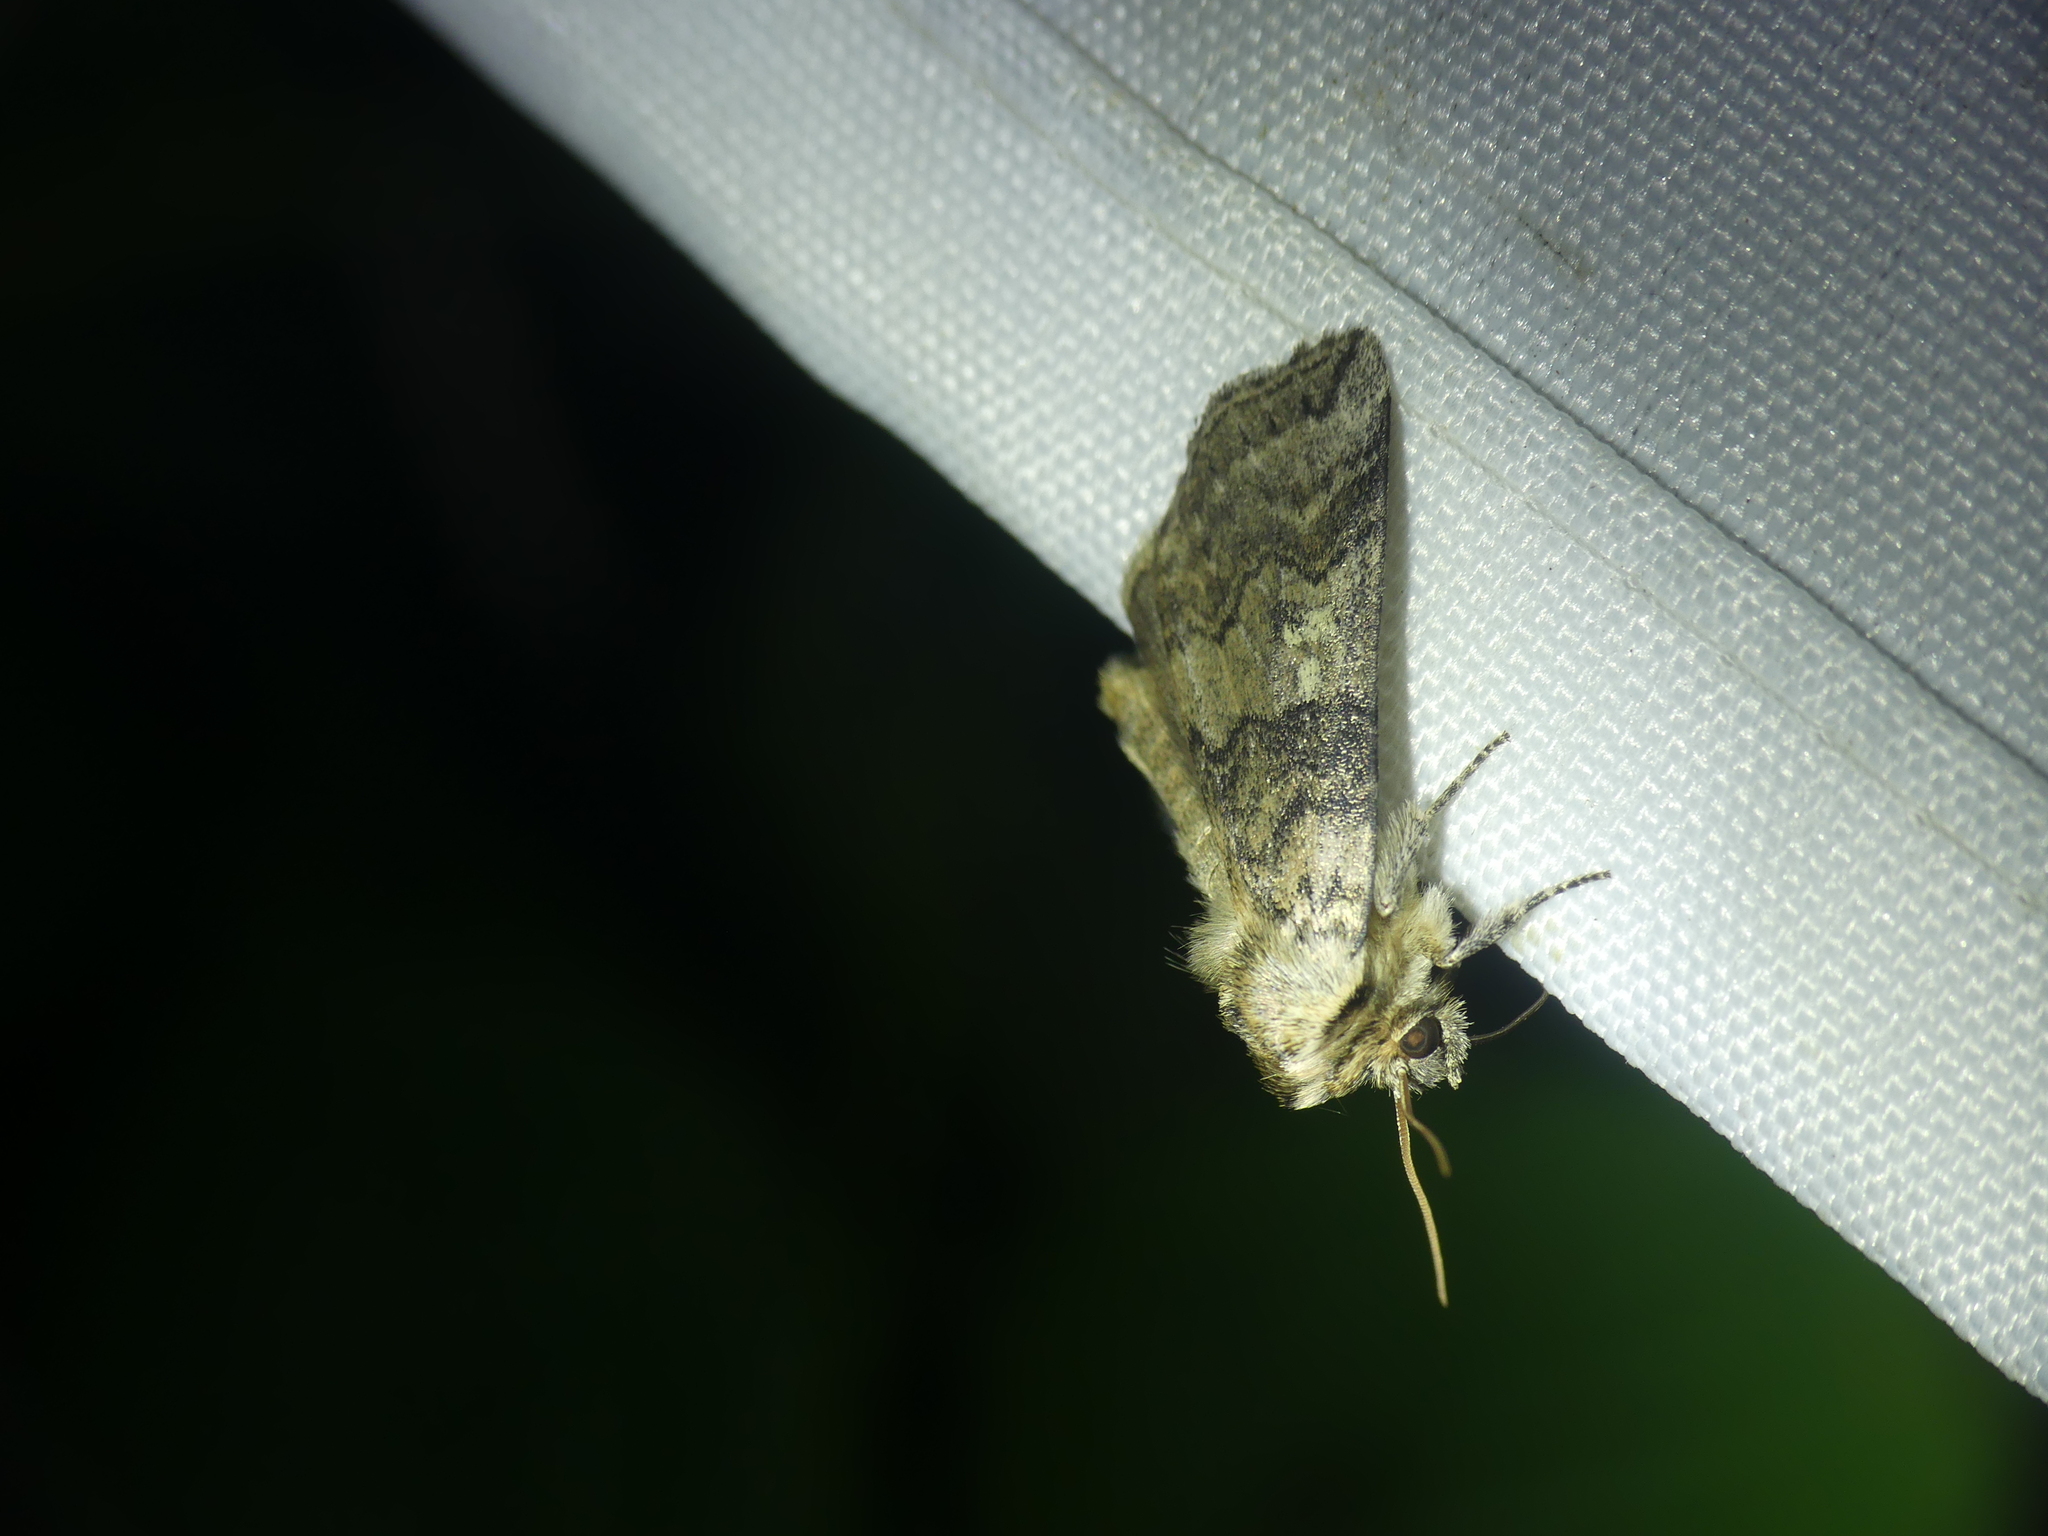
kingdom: Animalia
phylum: Arthropoda
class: Insecta
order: Lepidoptera
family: Drepanidae
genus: Tethea
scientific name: Tethea or
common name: Poplar lutestring
